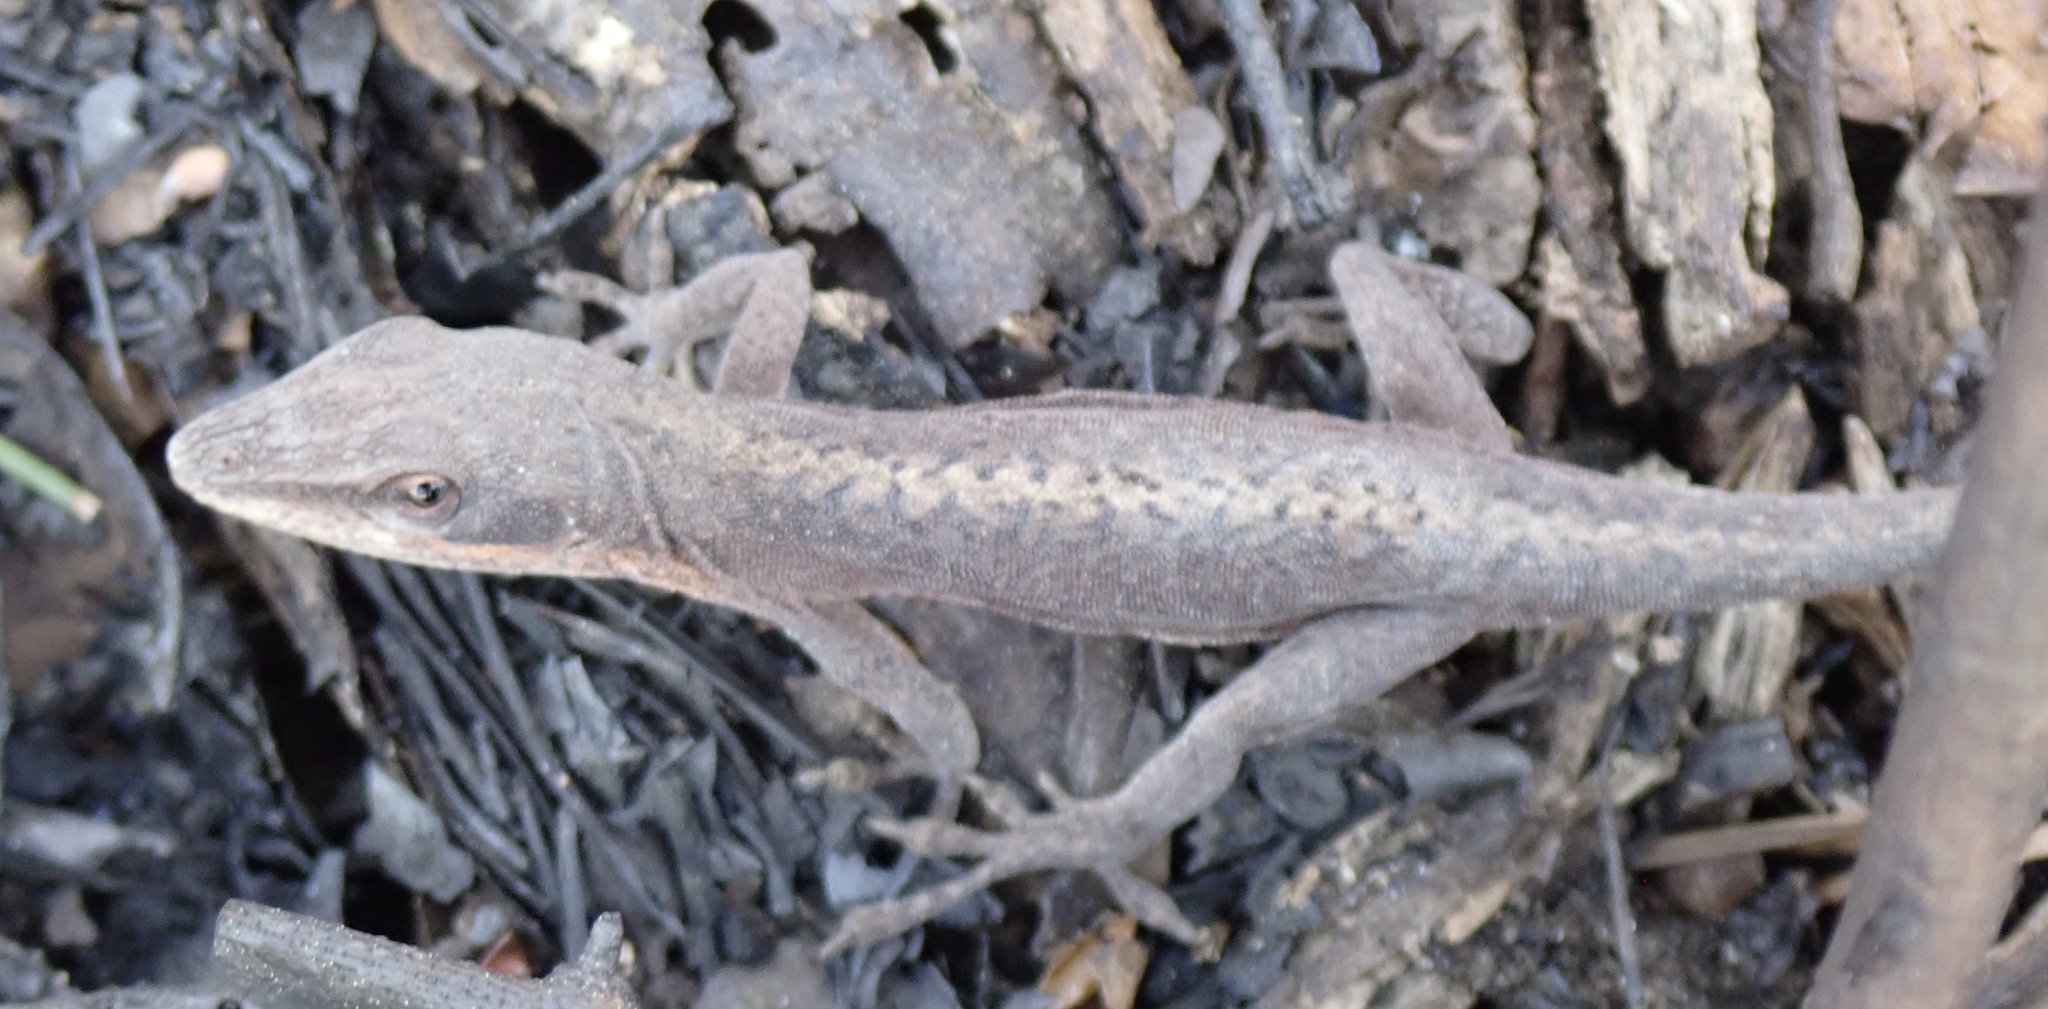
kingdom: Animalia
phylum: Chordata
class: Squamata
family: Dactyloidae
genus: Anolis
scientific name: Anolis carolinensis
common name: Green anole
